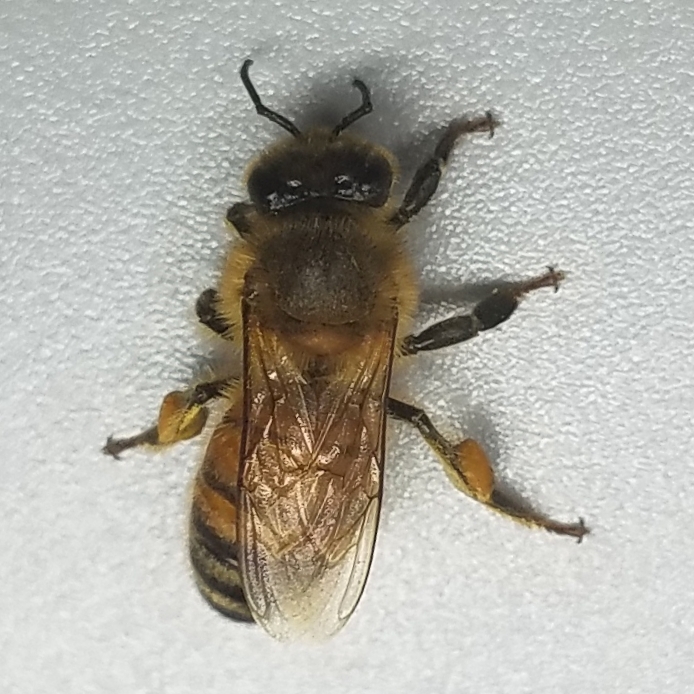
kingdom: Animalia
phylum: Arthropoda
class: Insecta
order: Hymenoptera
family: Apidae
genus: Apis
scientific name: Apis mellifera
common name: Honey bee
